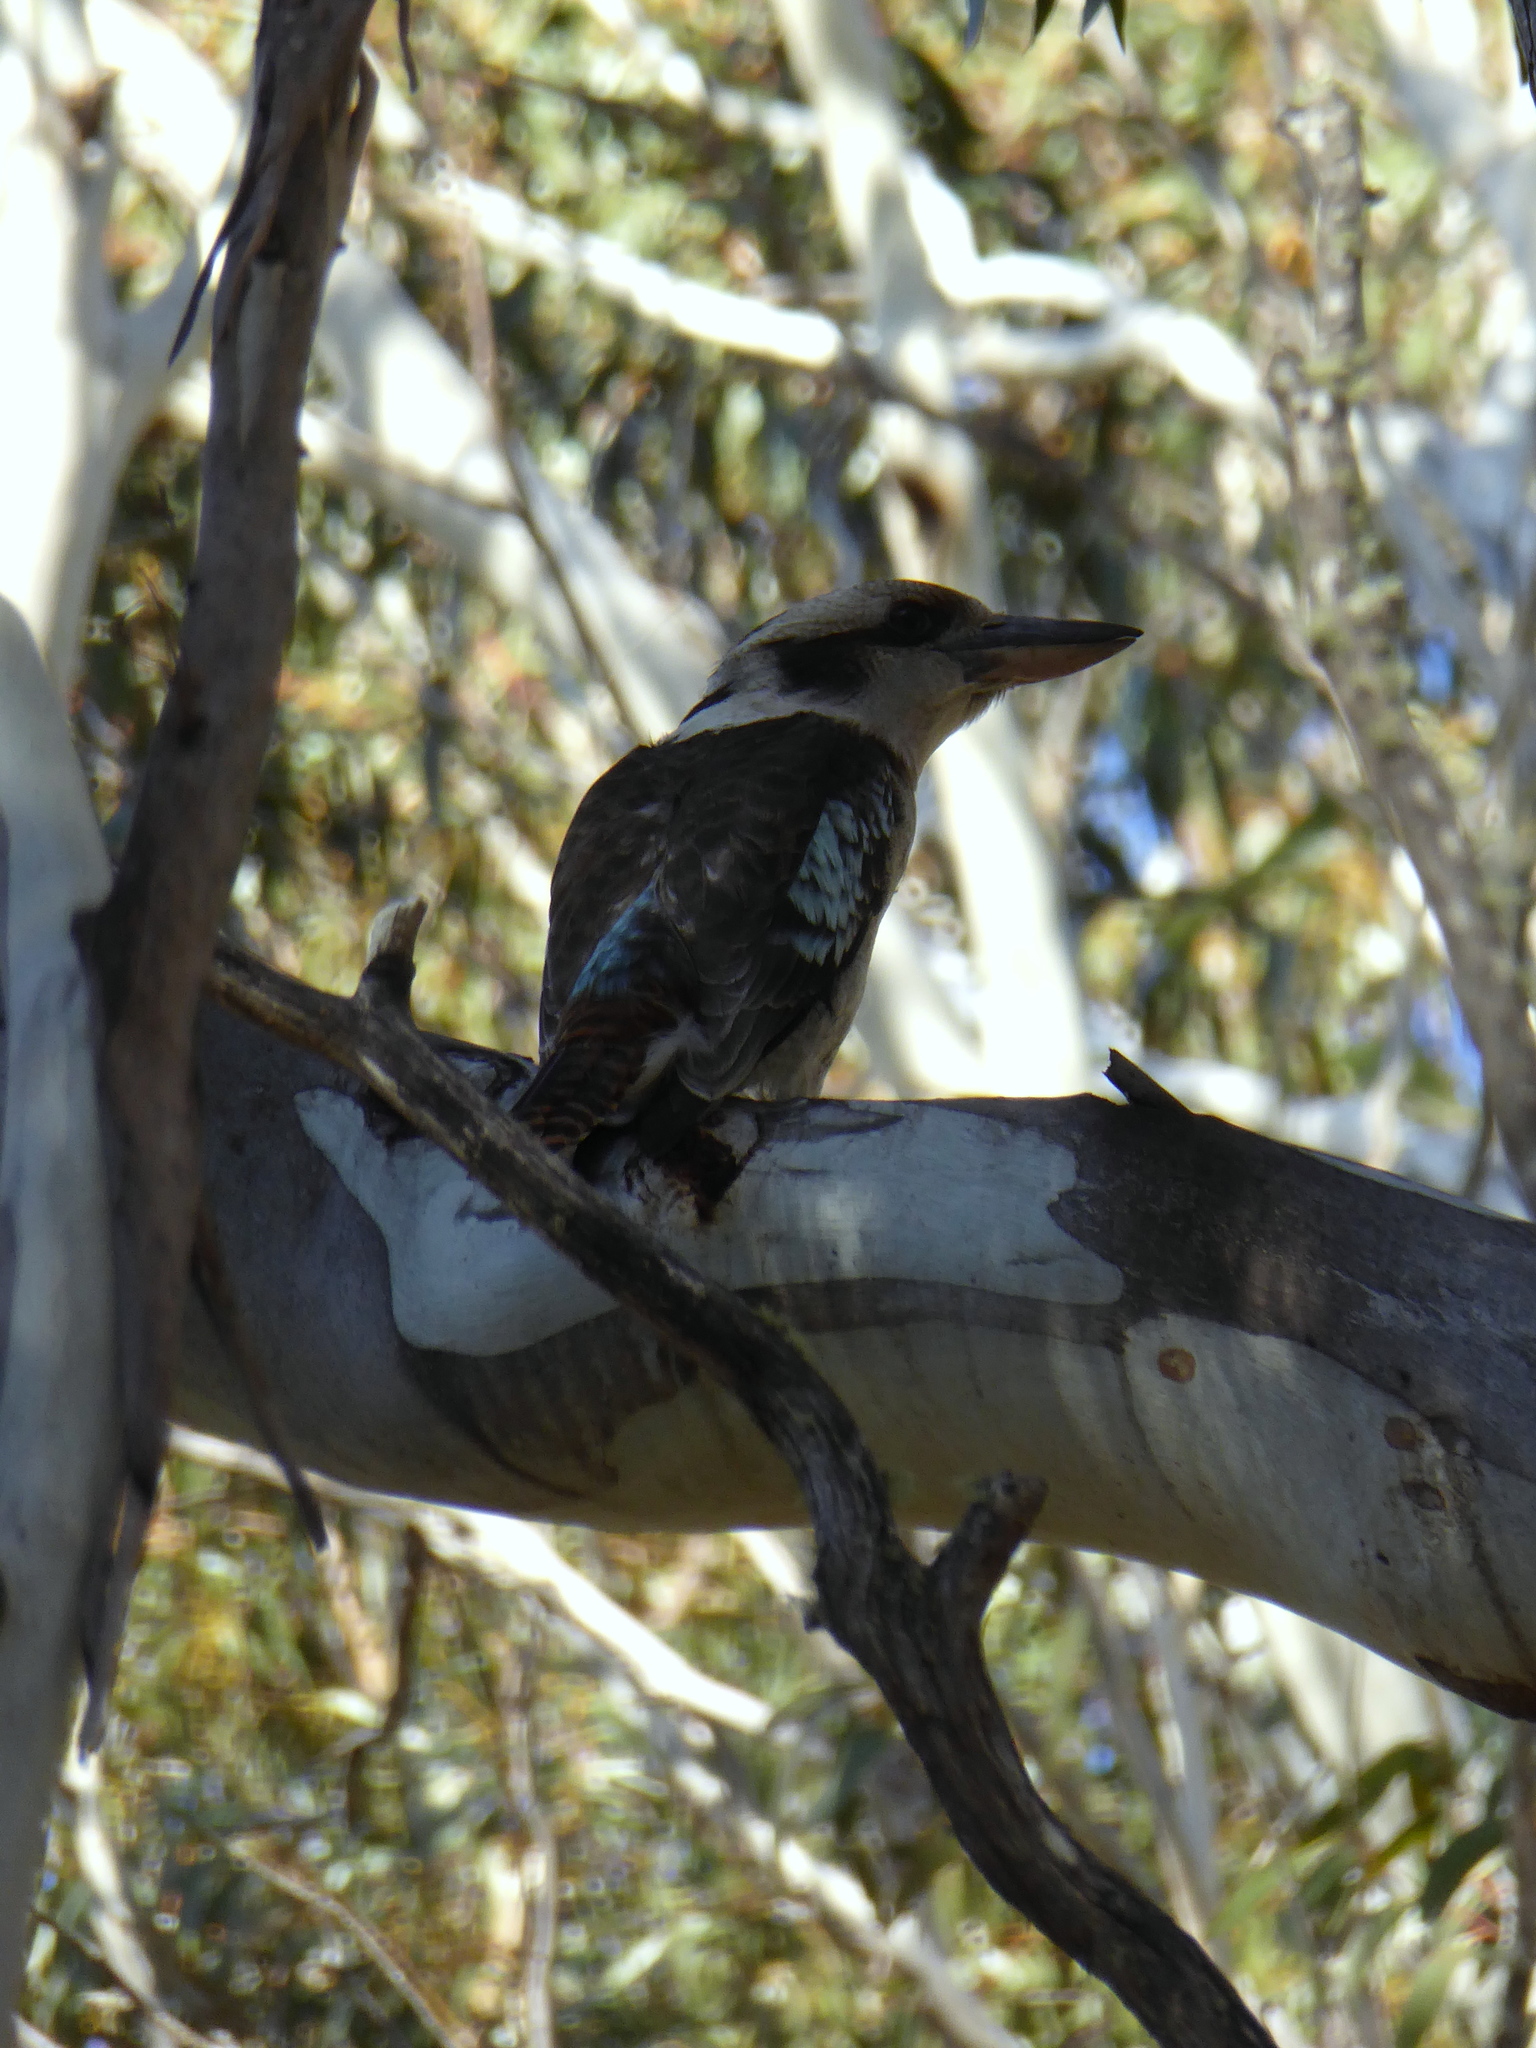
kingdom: Animalia
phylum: Chordata
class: Aves
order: Coraciiformes
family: Alcedinidae
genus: Dacelo
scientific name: Dacelo novaeguineae
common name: Laughing kookaburra
